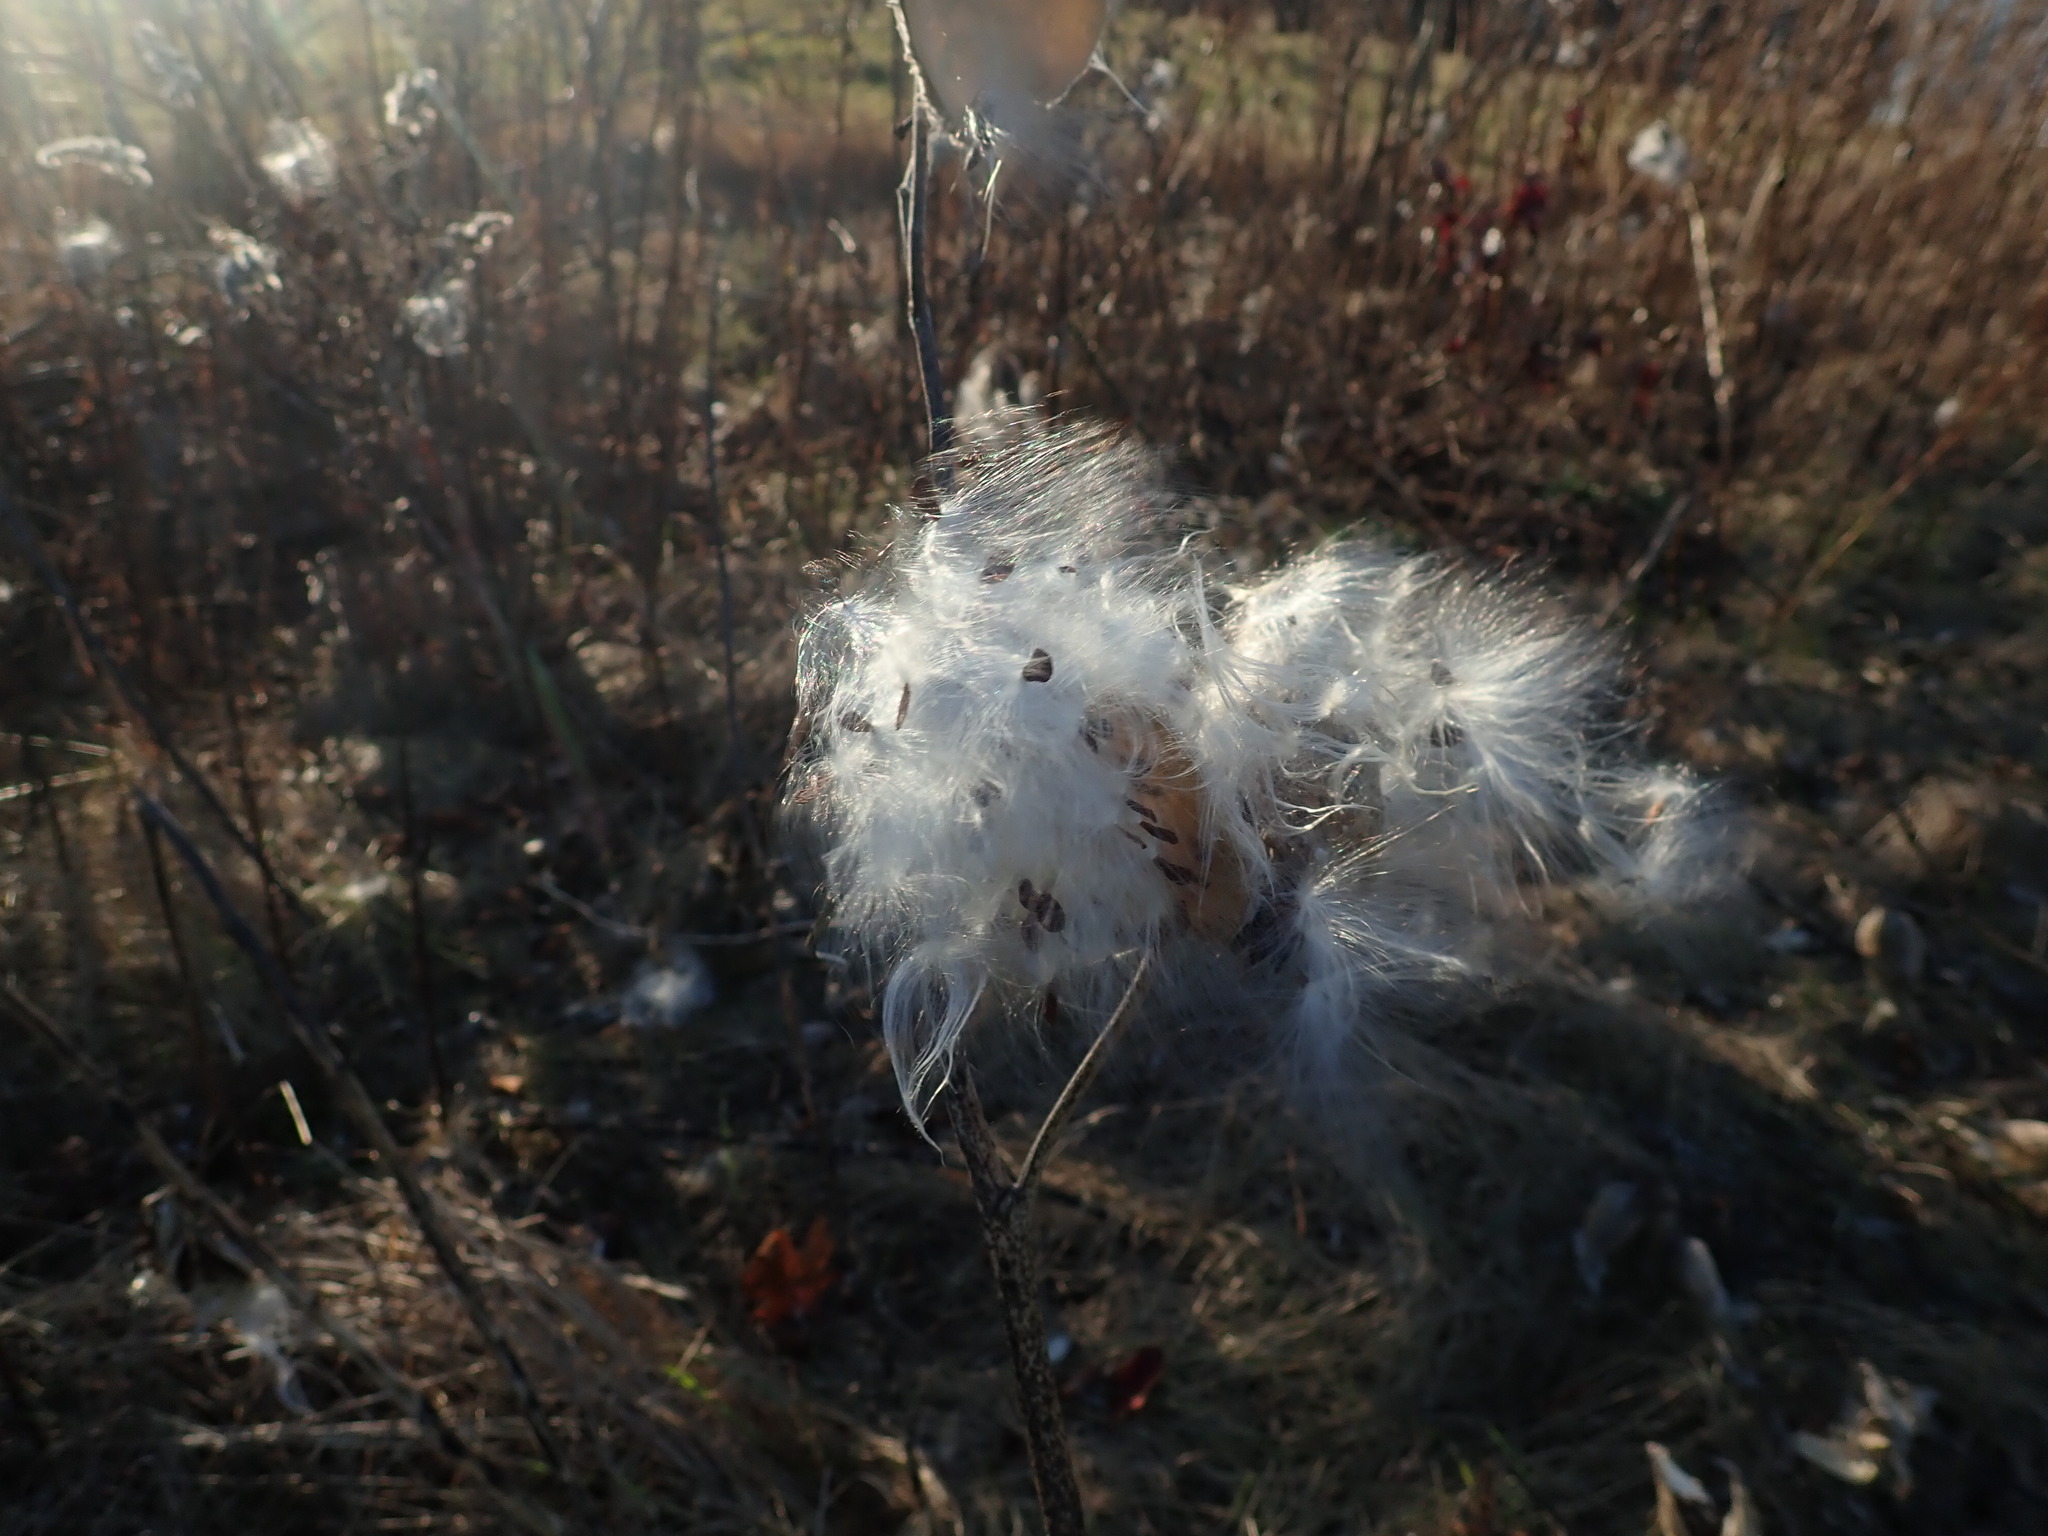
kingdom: Plantae
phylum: Tracheophyta
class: Magnoliopsida
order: Gentianales
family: Apocynaceae
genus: Asclepias
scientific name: Asclepias syriaca
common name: Common milkweed
